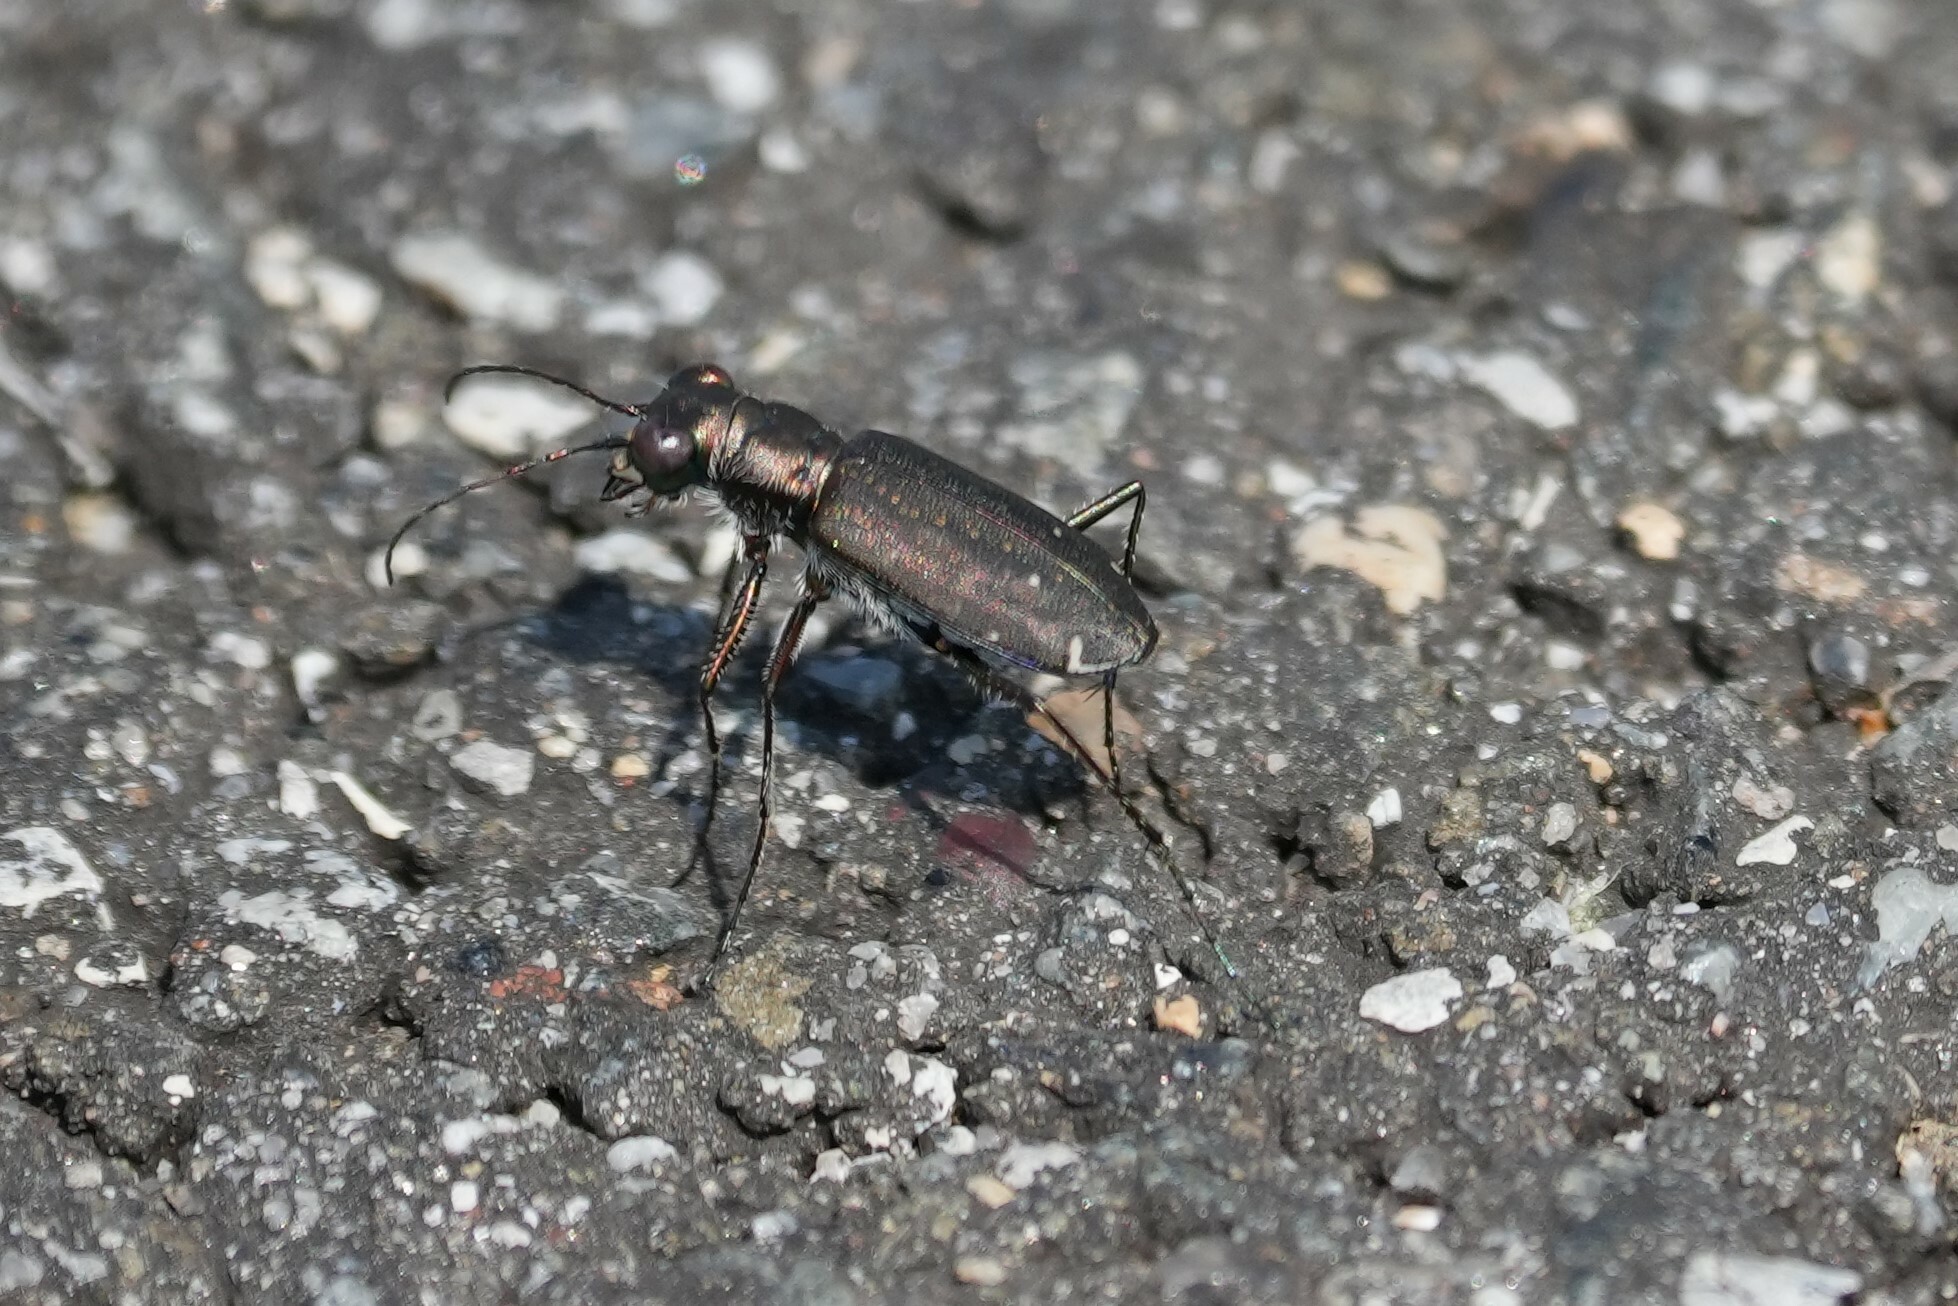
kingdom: Animalia
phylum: Arthropoda
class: Insecta
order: Coleoptera
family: Carabidae
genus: Cicindela
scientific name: Cicindela punctulata
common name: Punctured tiger beetle
